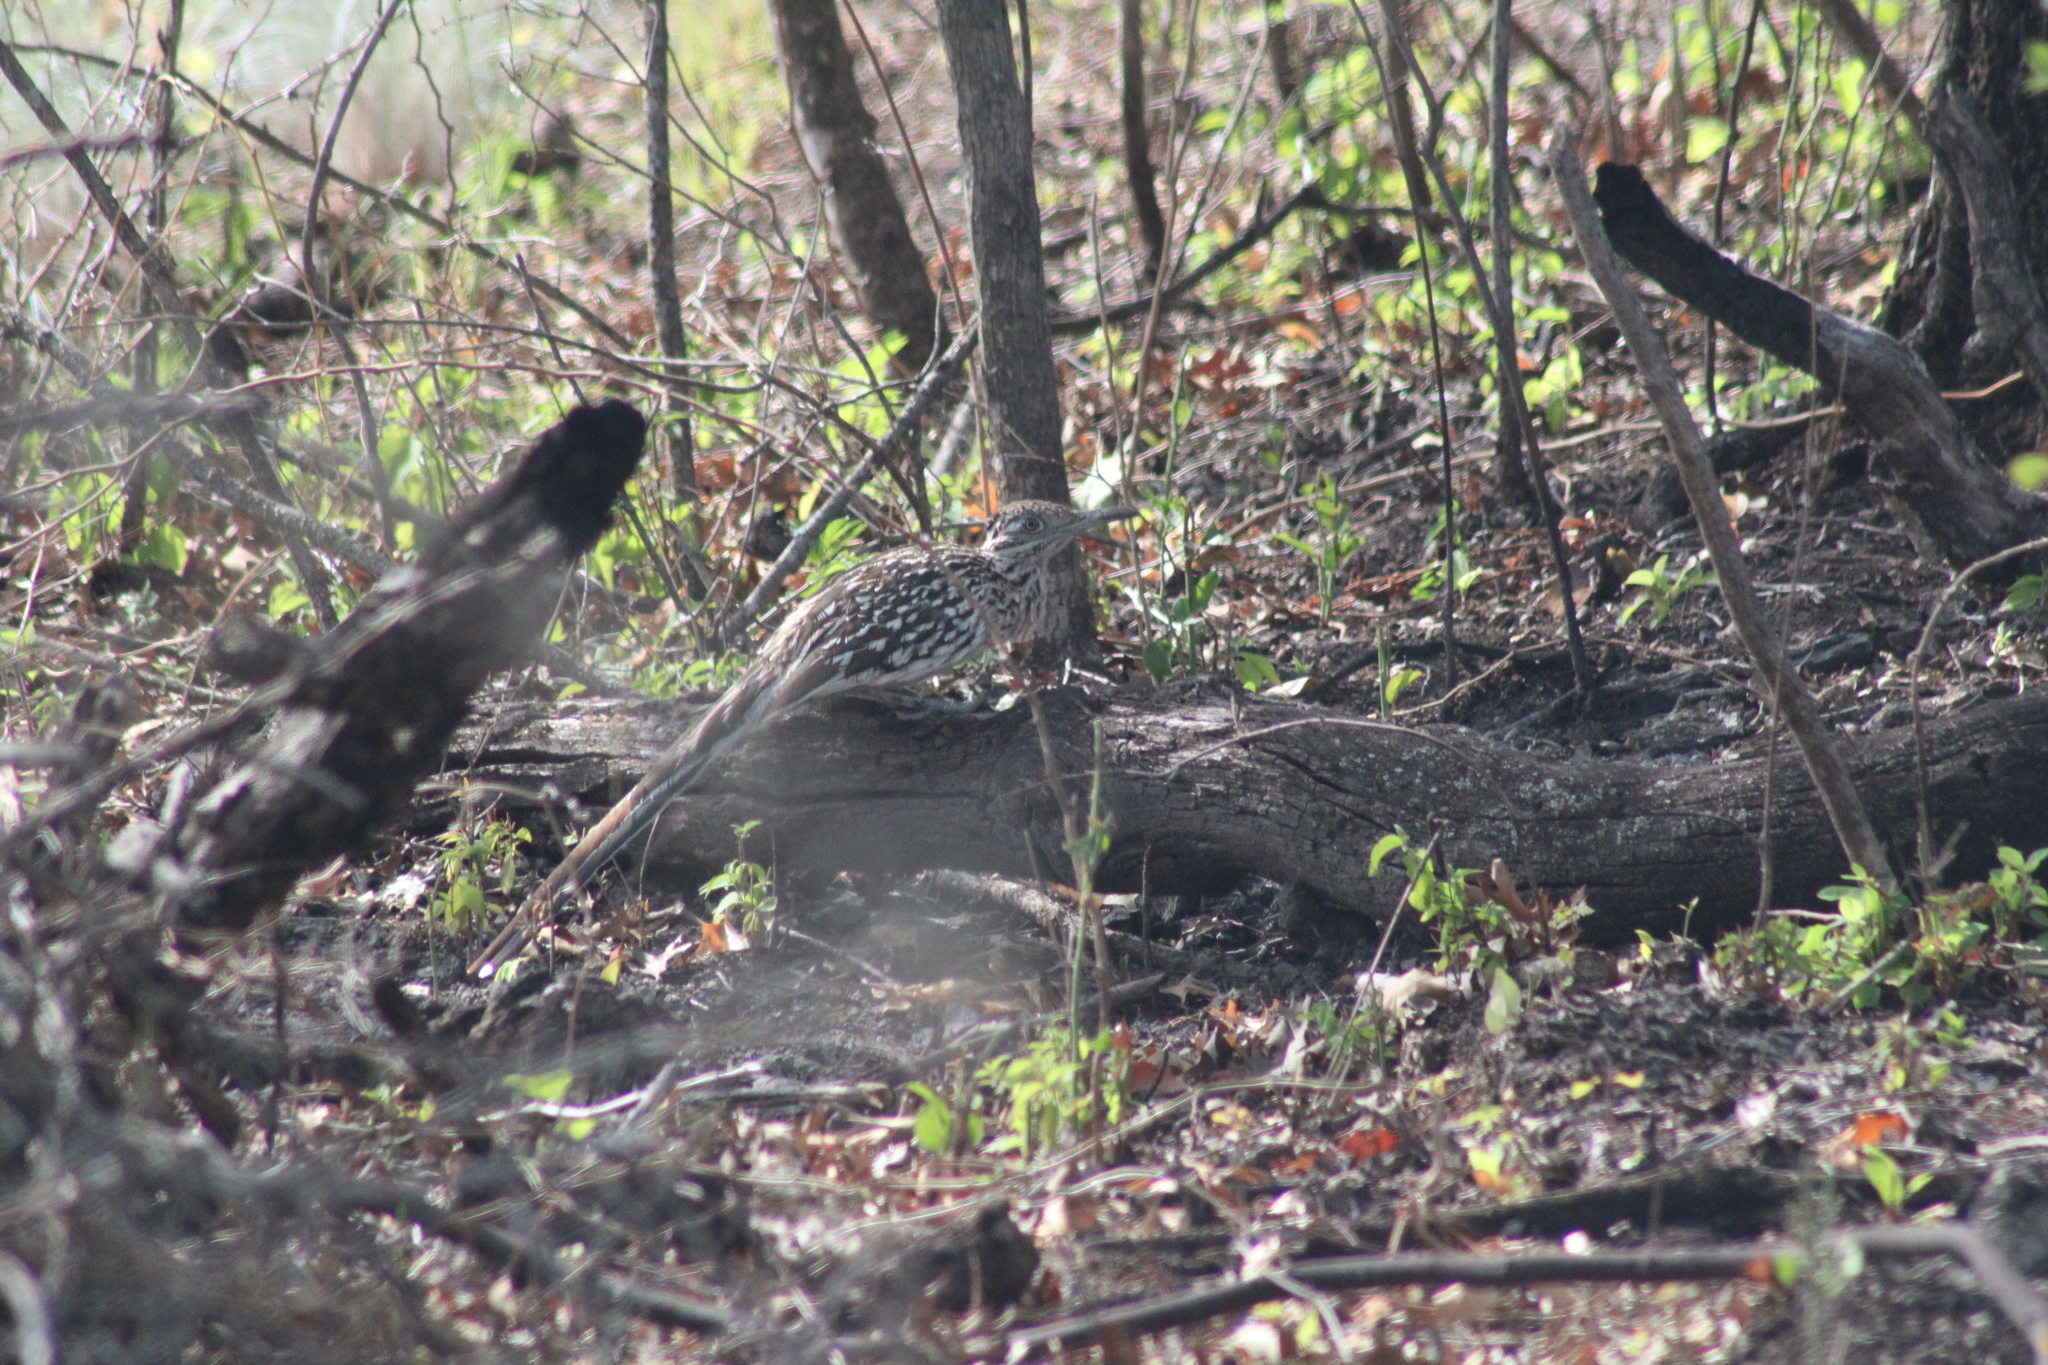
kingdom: Animalia
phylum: Chordata
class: Aves
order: Cuculiformes
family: Cuculidae
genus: Geococcyx
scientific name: Geococcyx californianus
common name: Greater roadrunner
